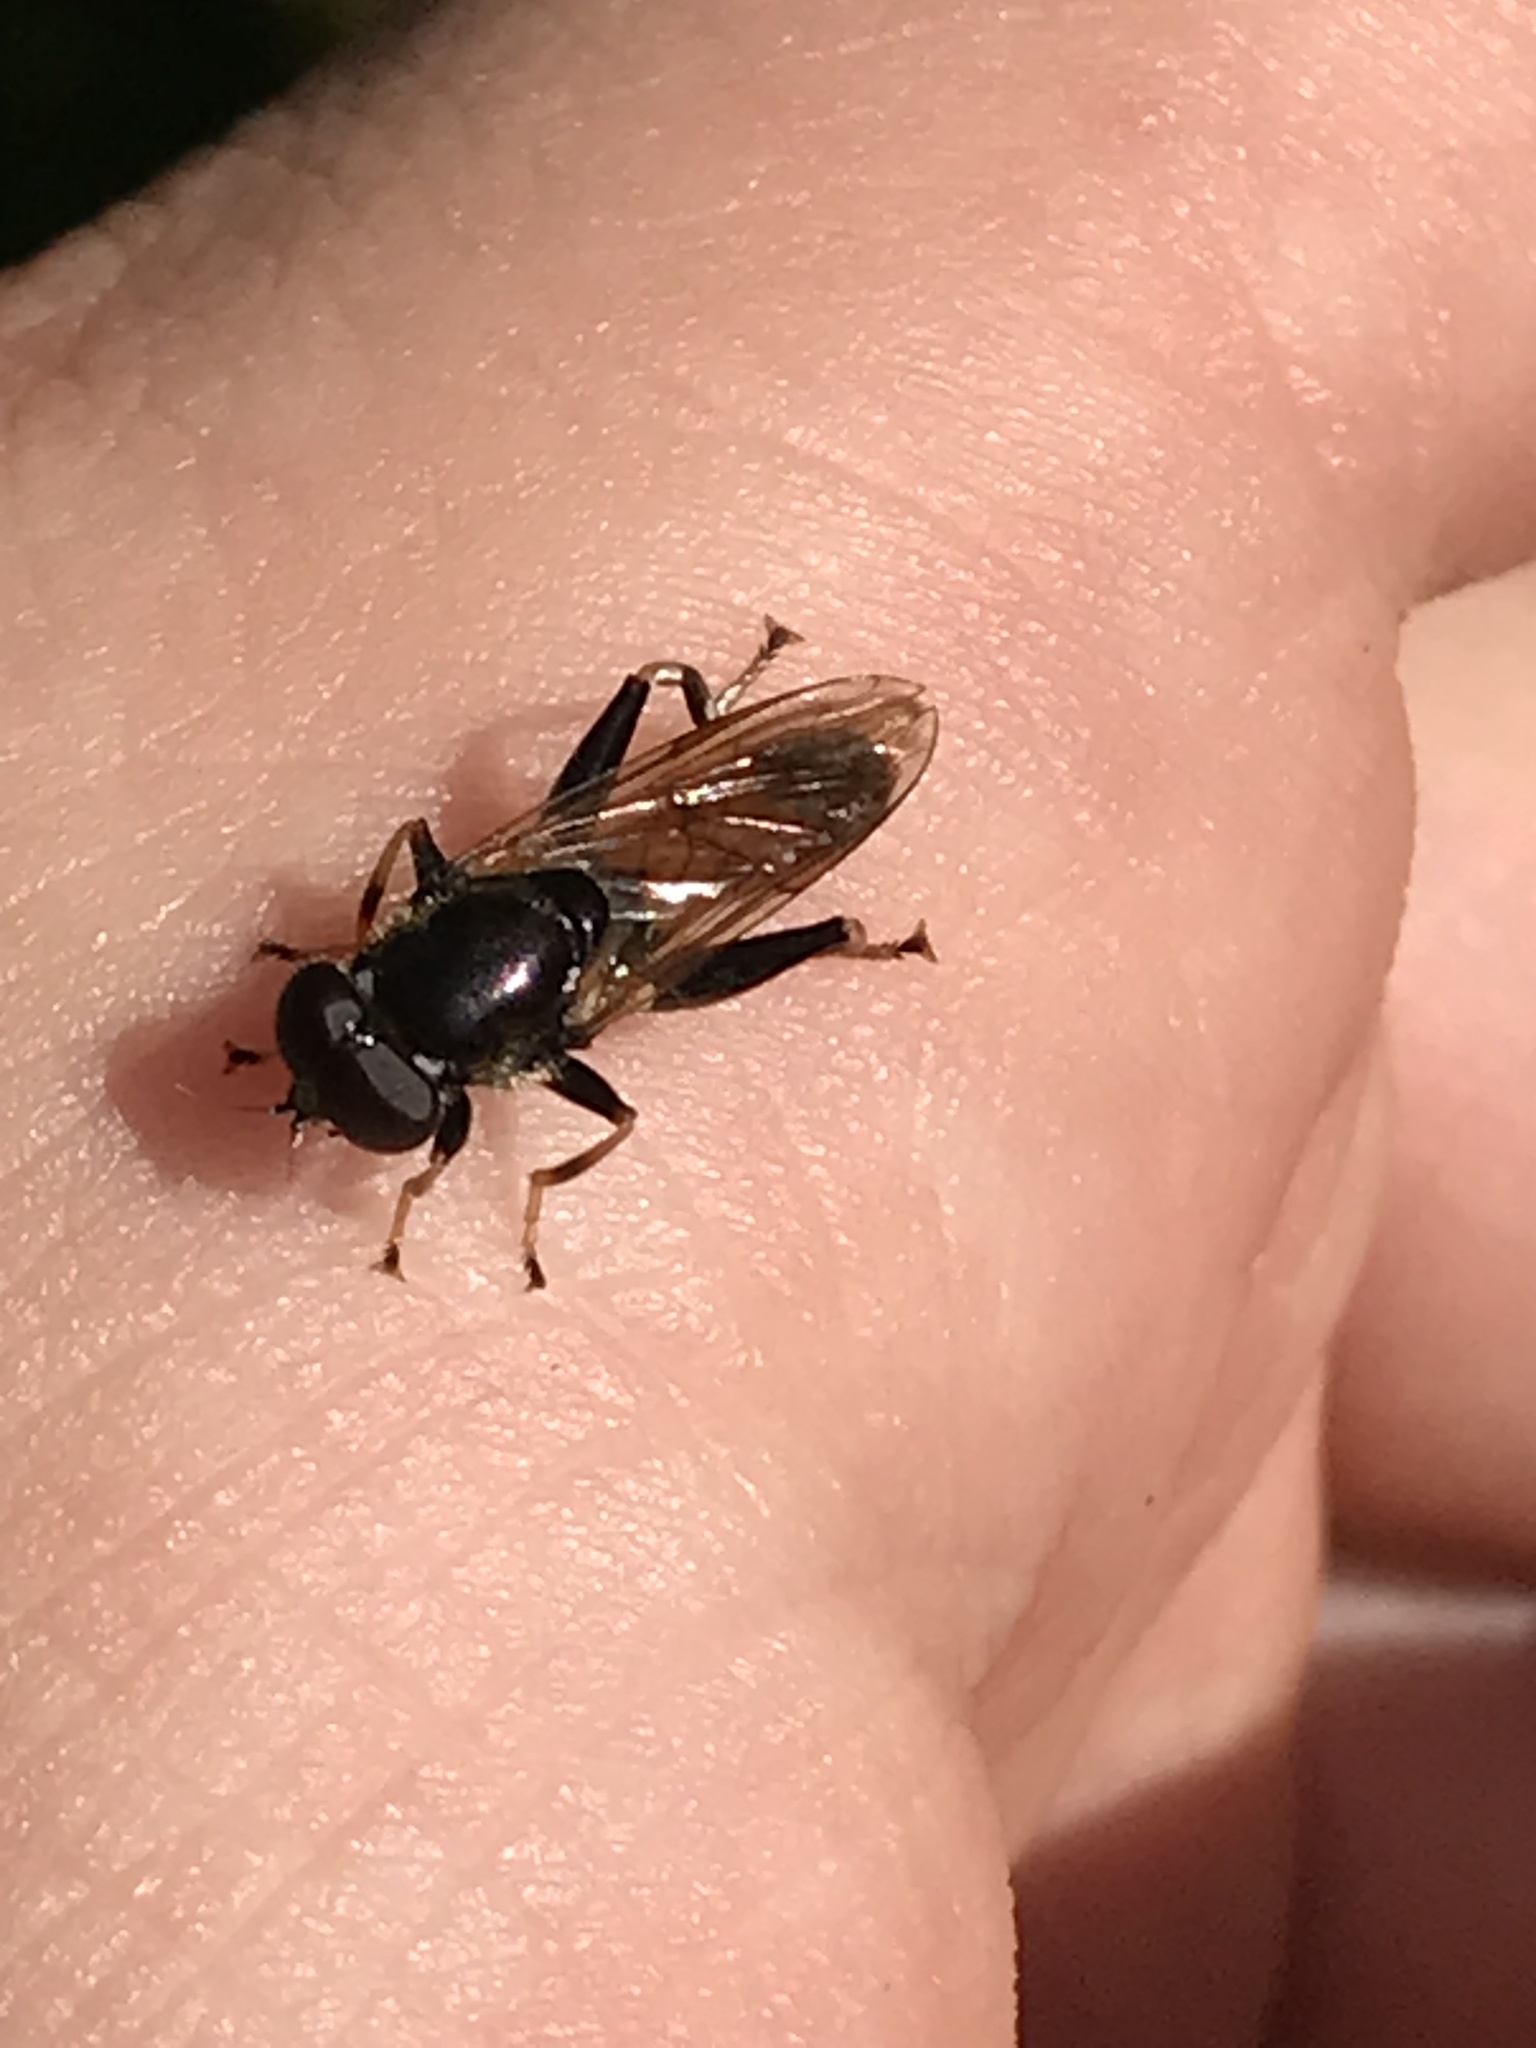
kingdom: Animalia
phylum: Arthropoda
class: Insecta
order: Diptera
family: Syrphidae
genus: Xylota
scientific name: Xylota segnis
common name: Brown-toed forest fly
